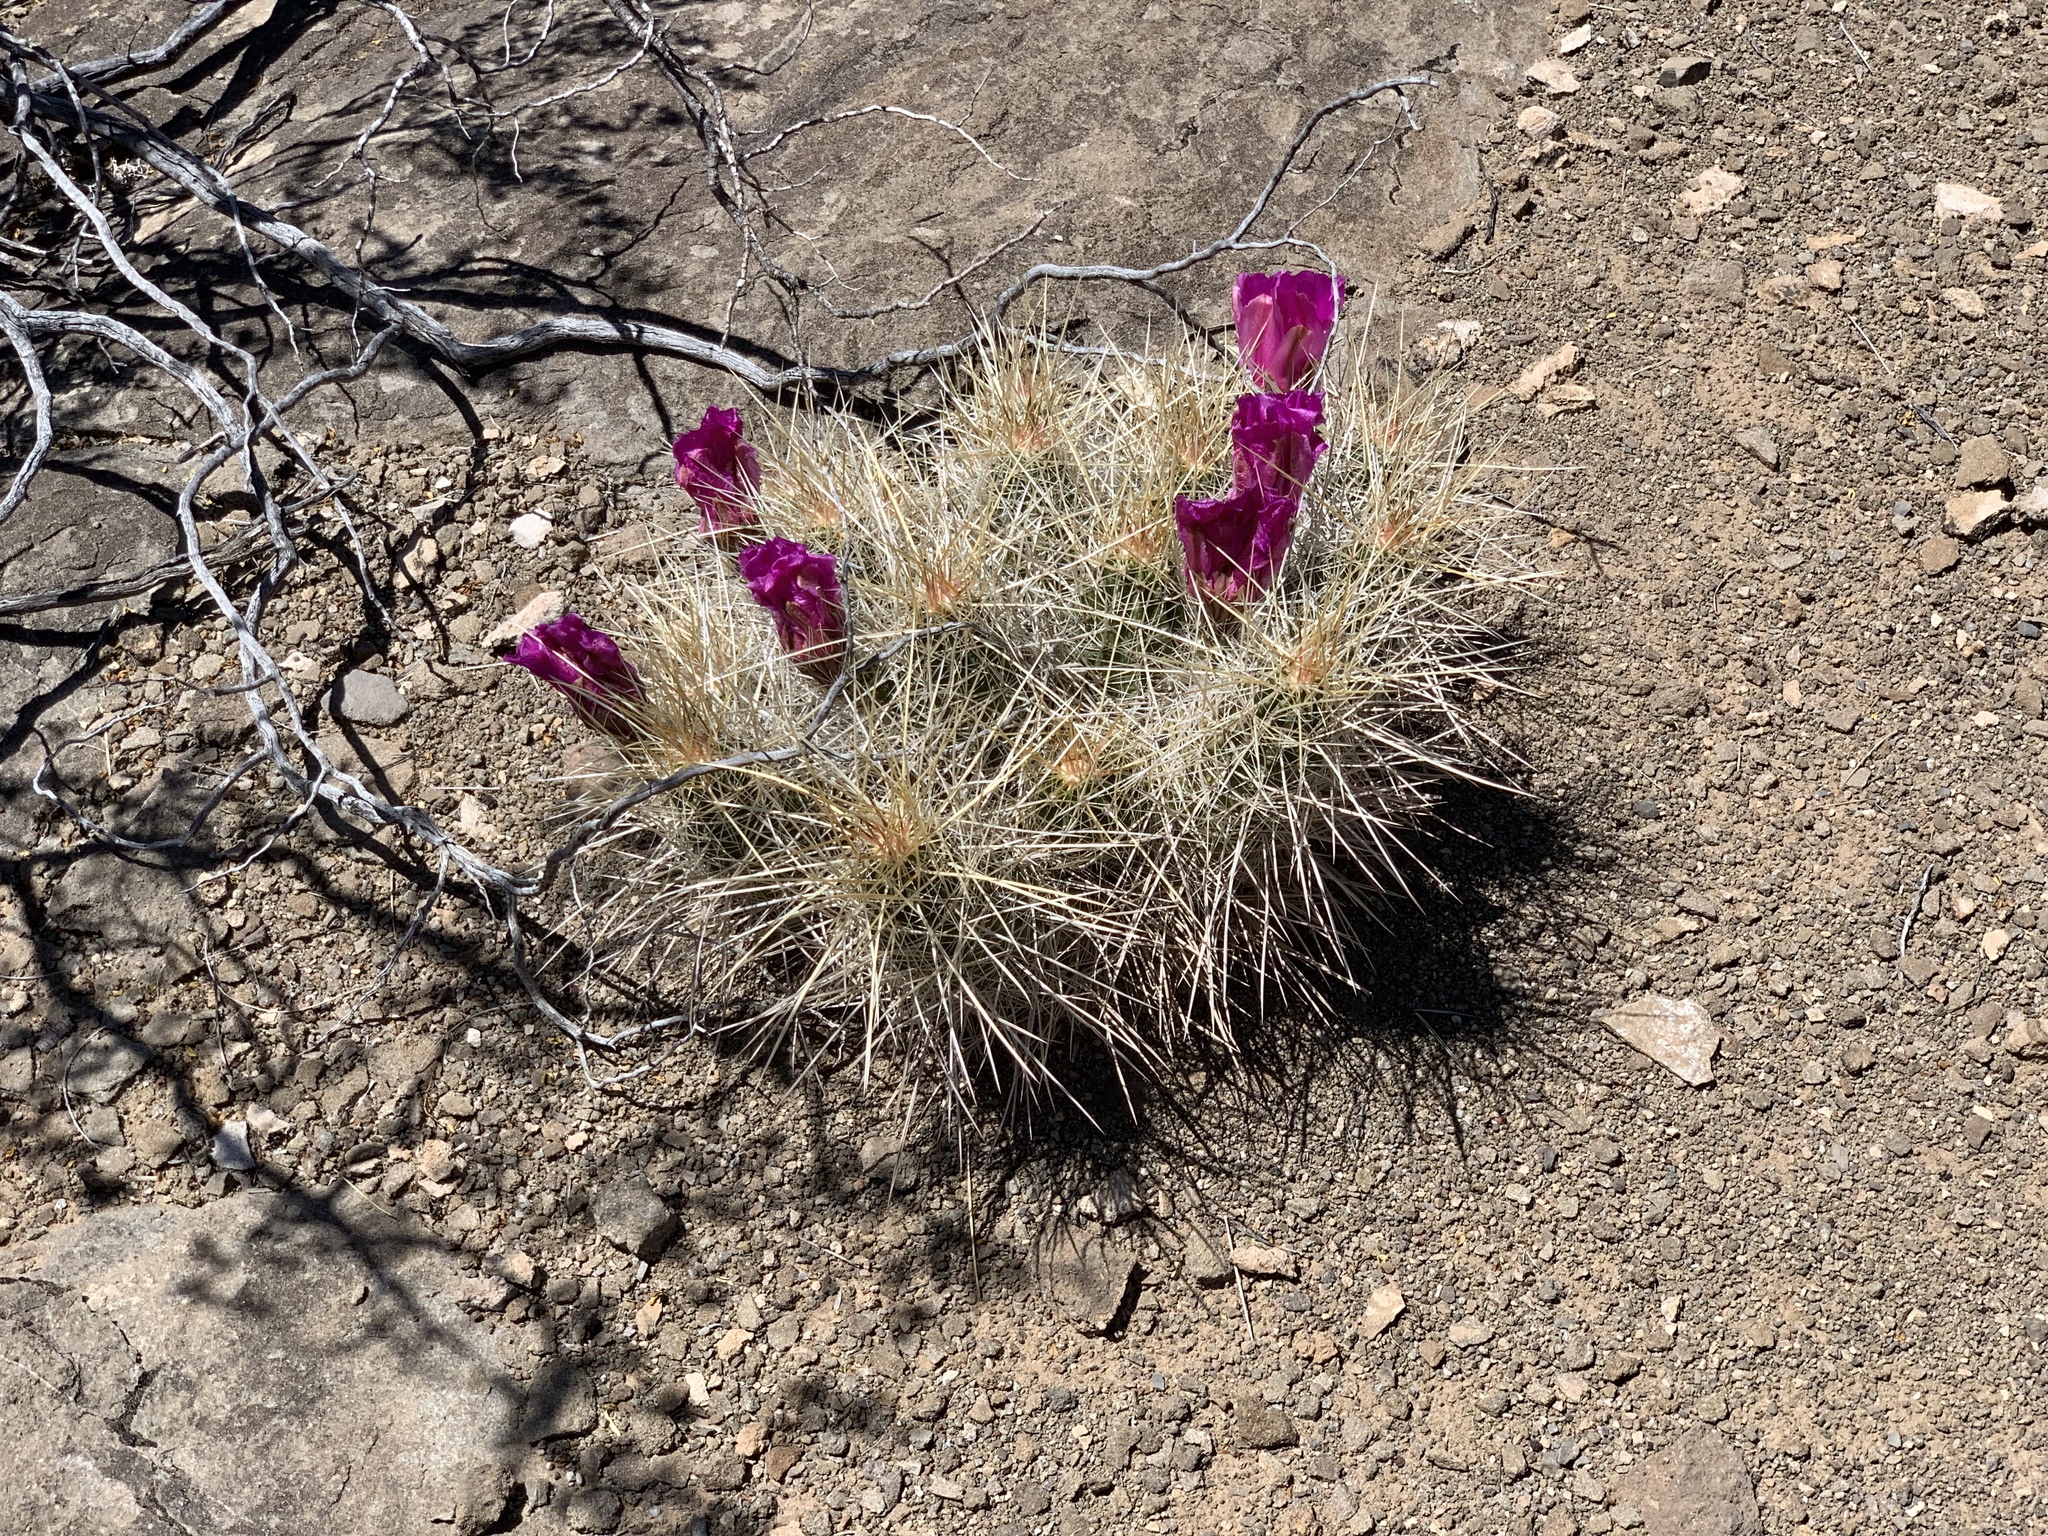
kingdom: Plantae
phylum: Tracheophyta
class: Magnoliopsida
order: Caryophyllales
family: Cactaceae
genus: Echinocereus
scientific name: Echinocereus stramineus
